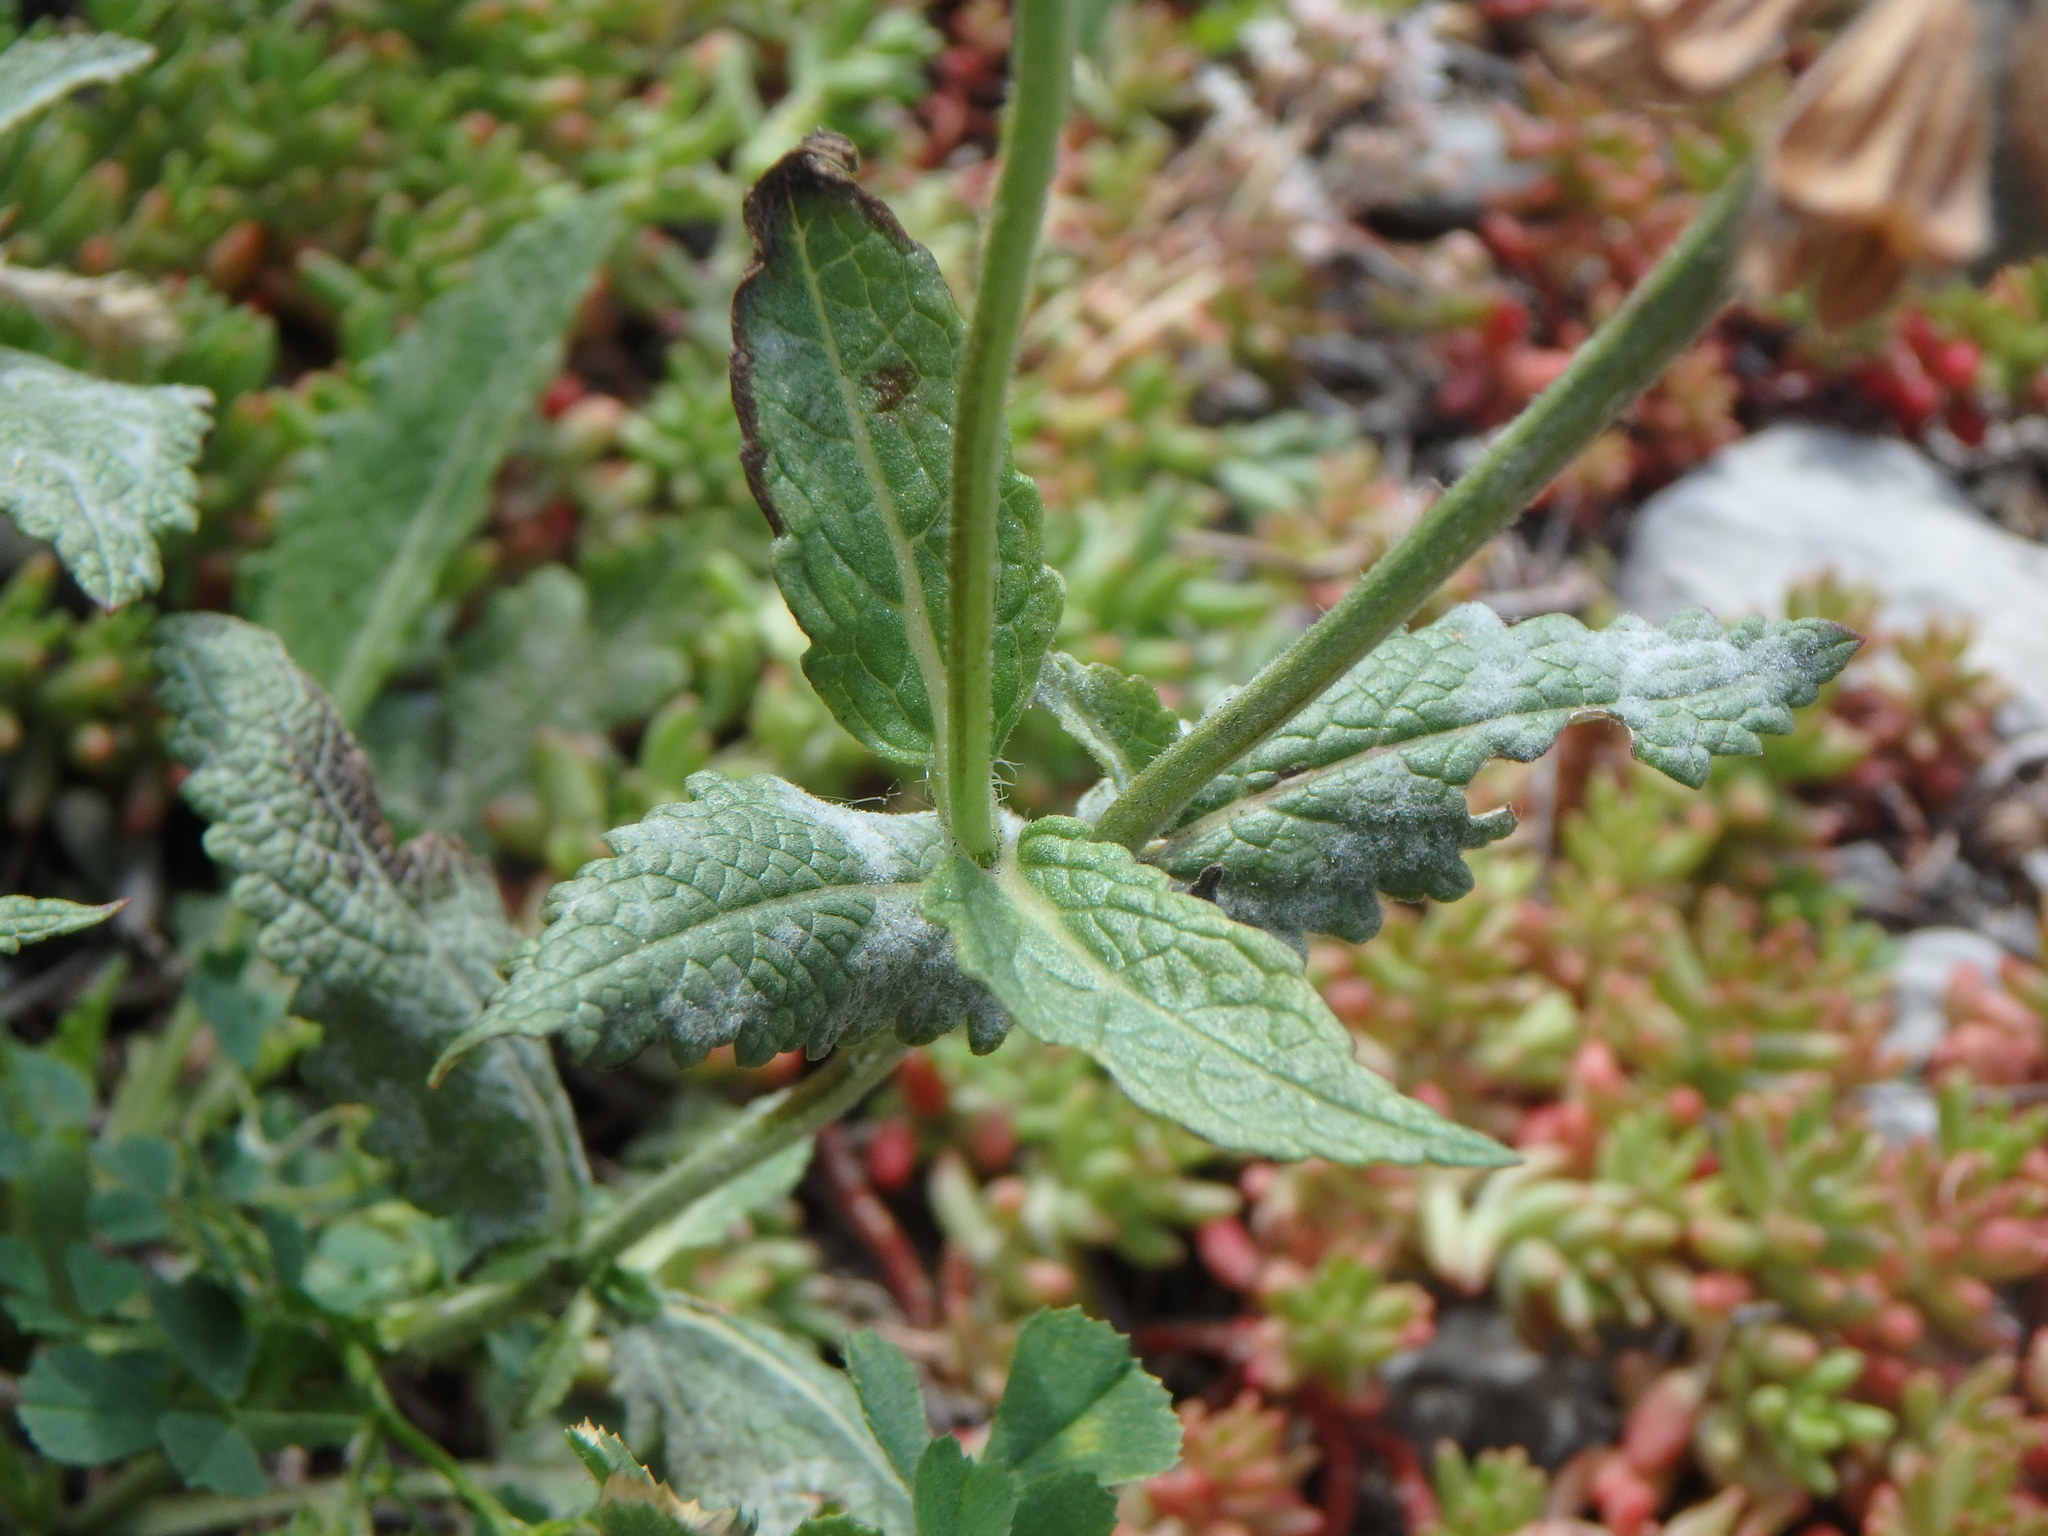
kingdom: Plantae
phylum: Tracheophyta
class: Magnoliopsida
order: Lamiales
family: Lamiaceae
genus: Salvia
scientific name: Salvia verbenaca
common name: Wild clary
